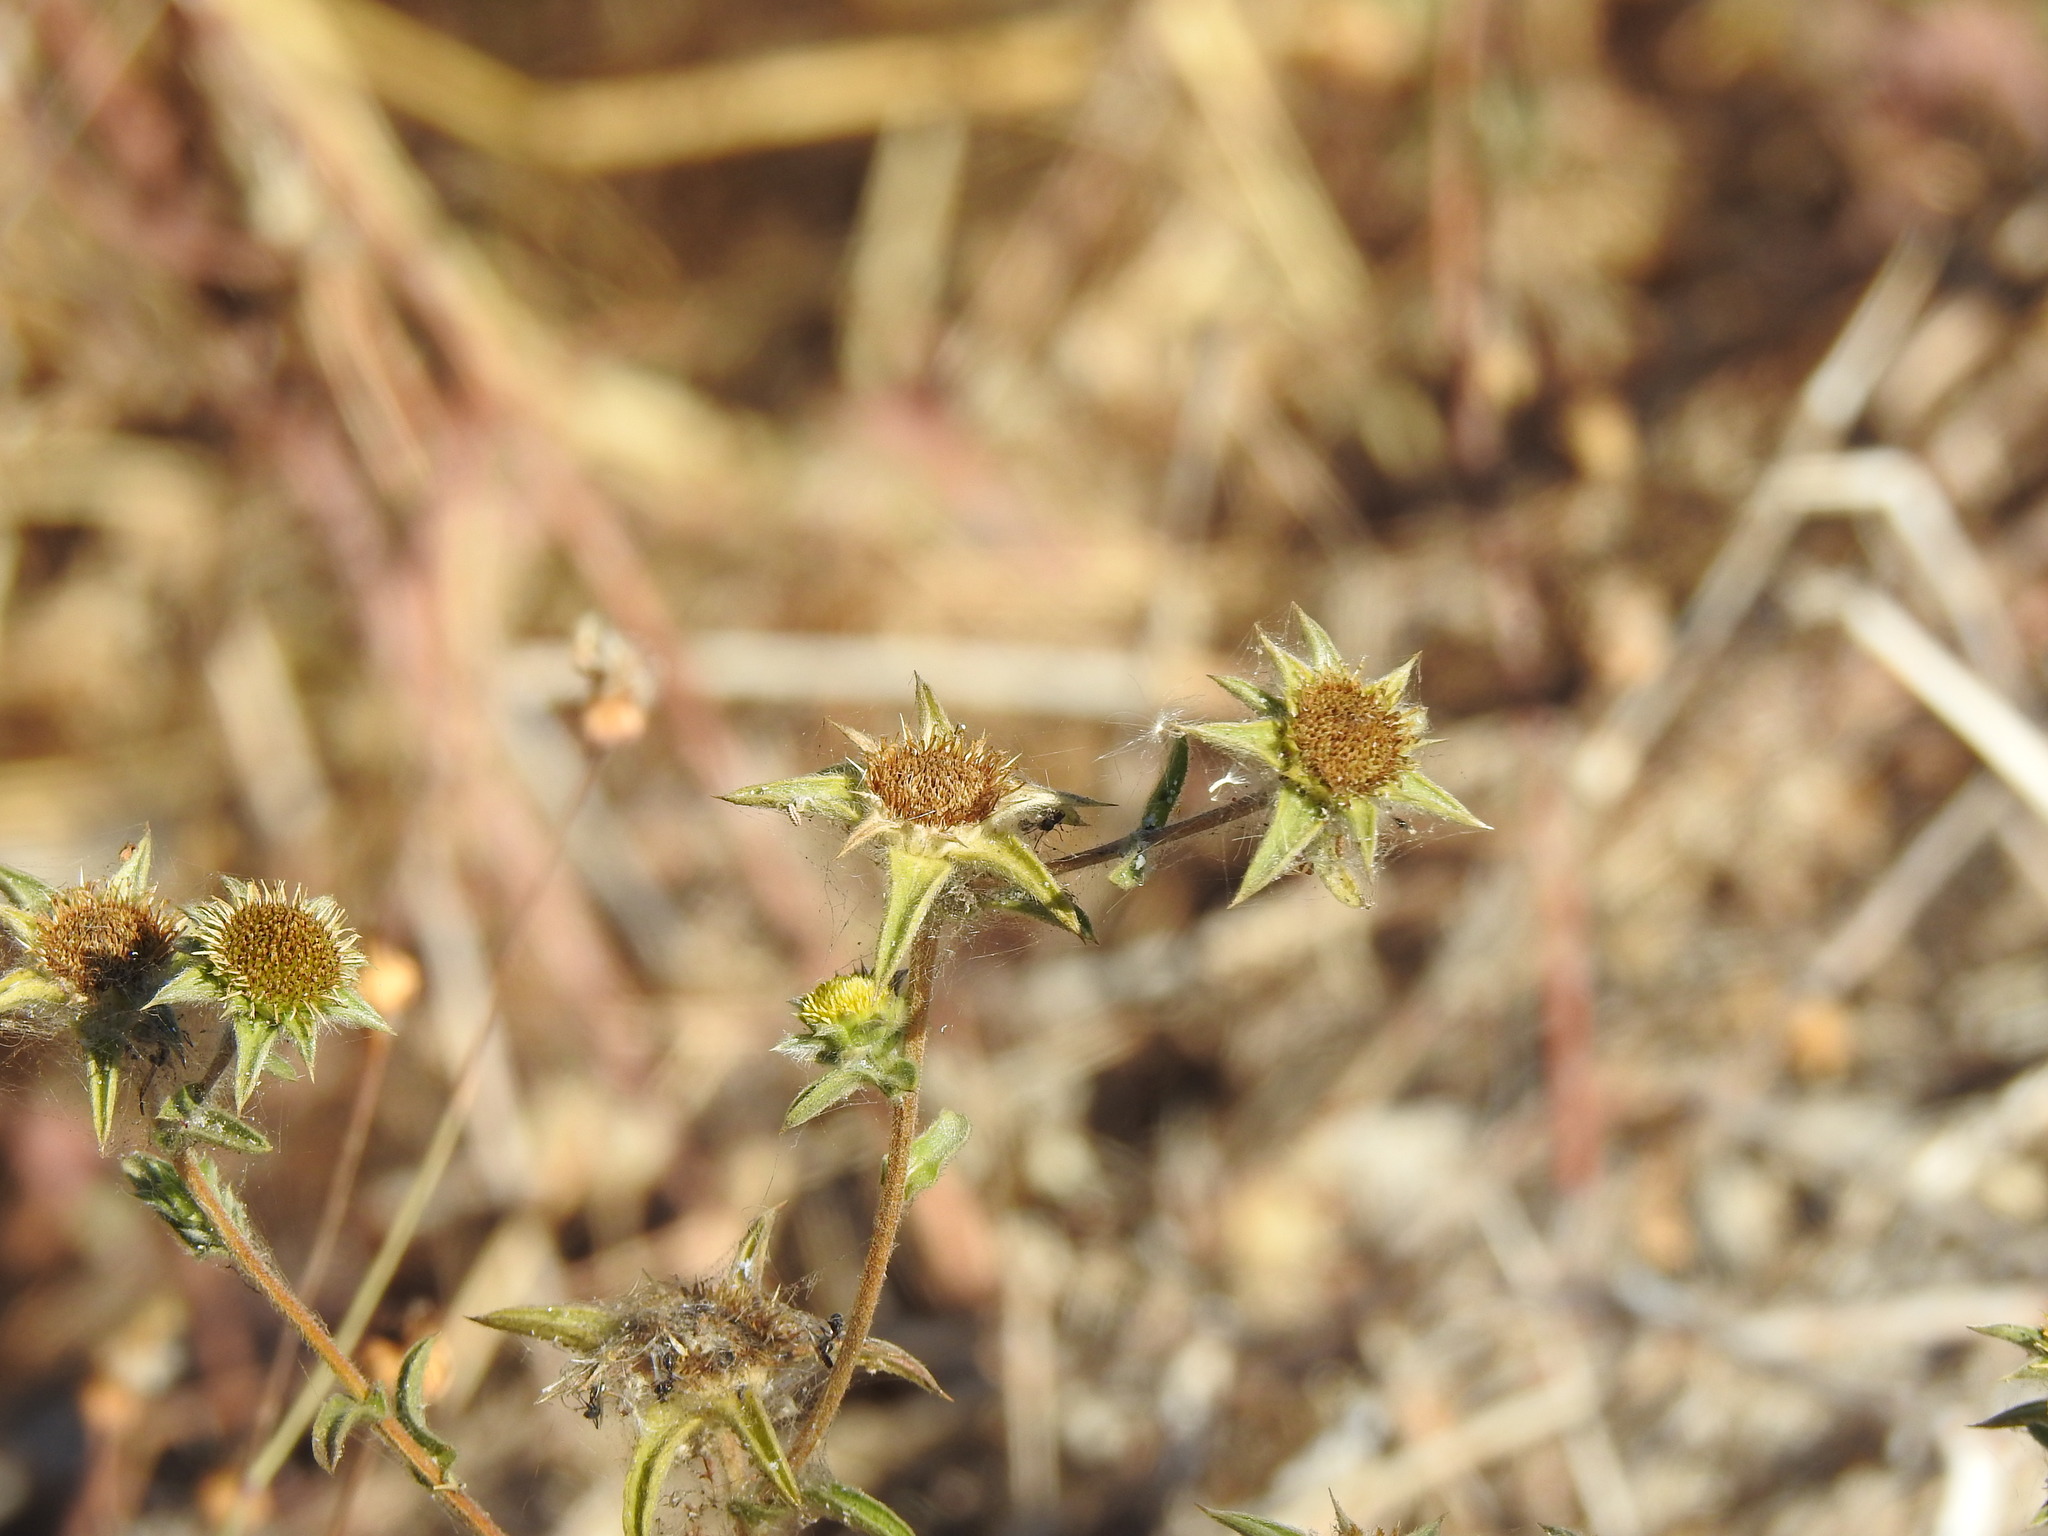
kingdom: Plantae
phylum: Tracheophyta
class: Magnoliopsida
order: Asterales
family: Asteraceae
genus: Pallenis
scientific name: Pallenis spinosa
